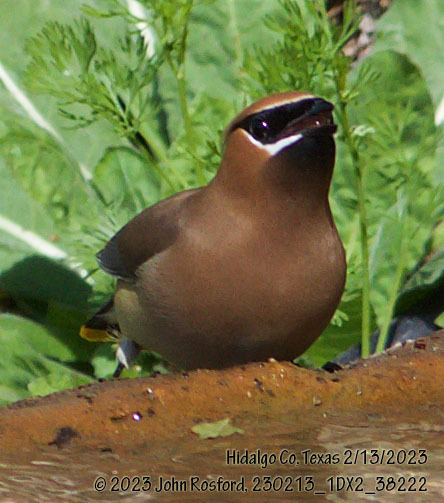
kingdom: Animalia
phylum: Chordata
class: Aves
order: Passeriformes
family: Bombycillidae
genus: Bombycilla
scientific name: Bombycilla cedrorum
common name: Cedar waxwing
